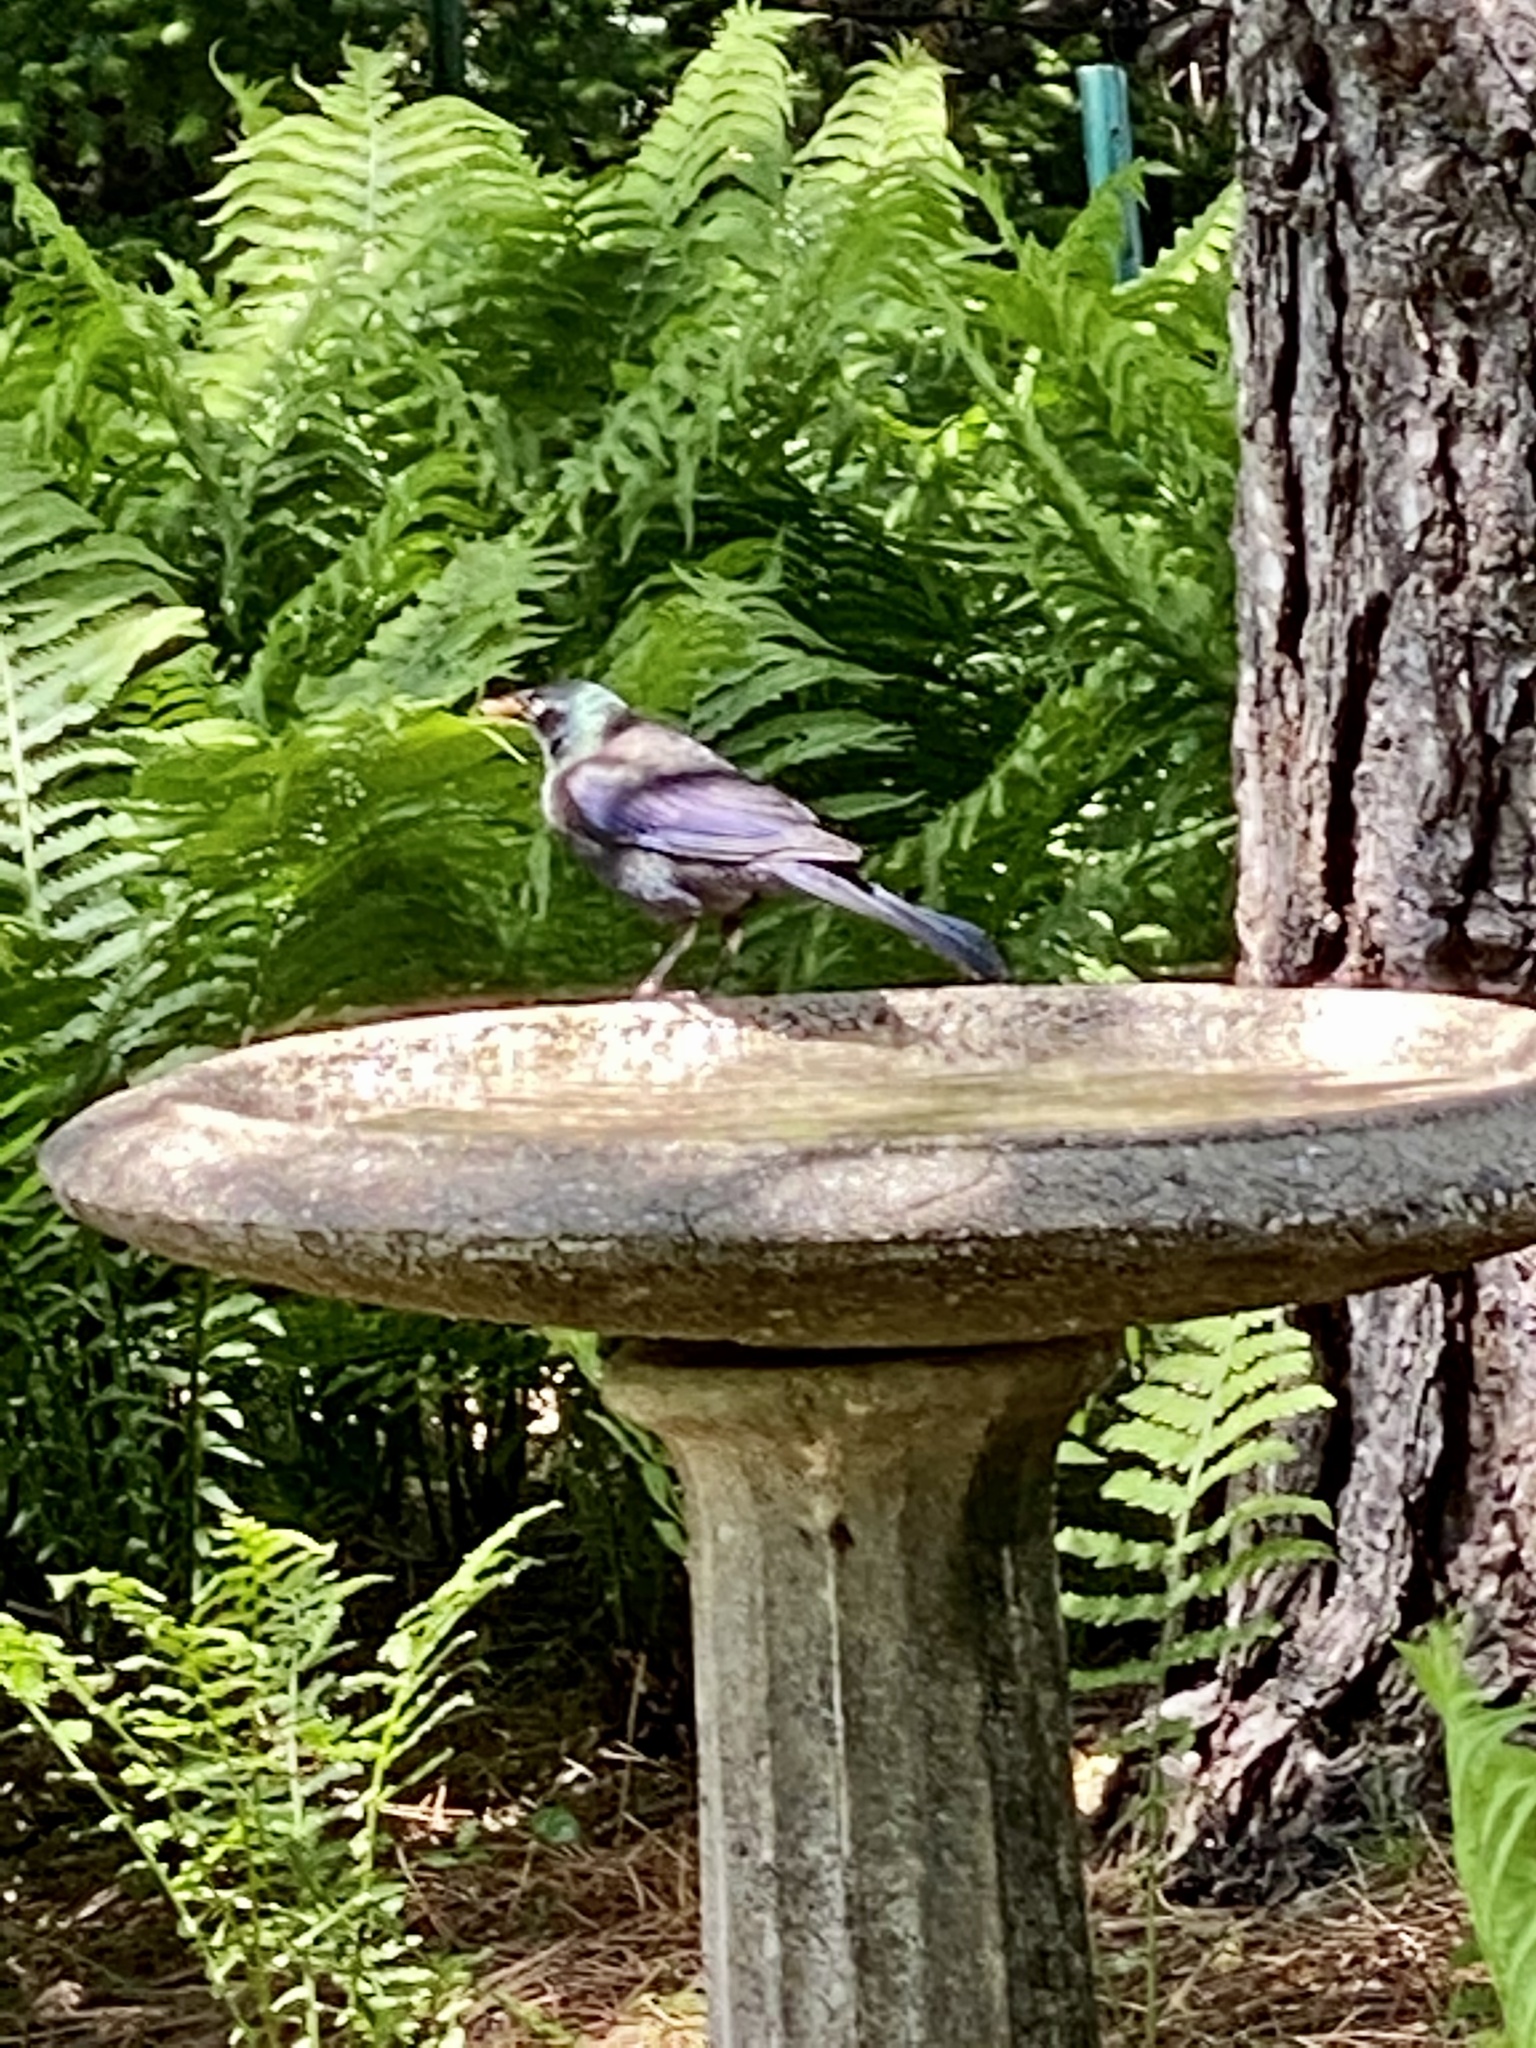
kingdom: Animalia
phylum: Chordata
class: Aves
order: Passeriformes
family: Icteridae
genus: Quiscalus
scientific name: Quiscalus quiscula
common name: Common grackle
